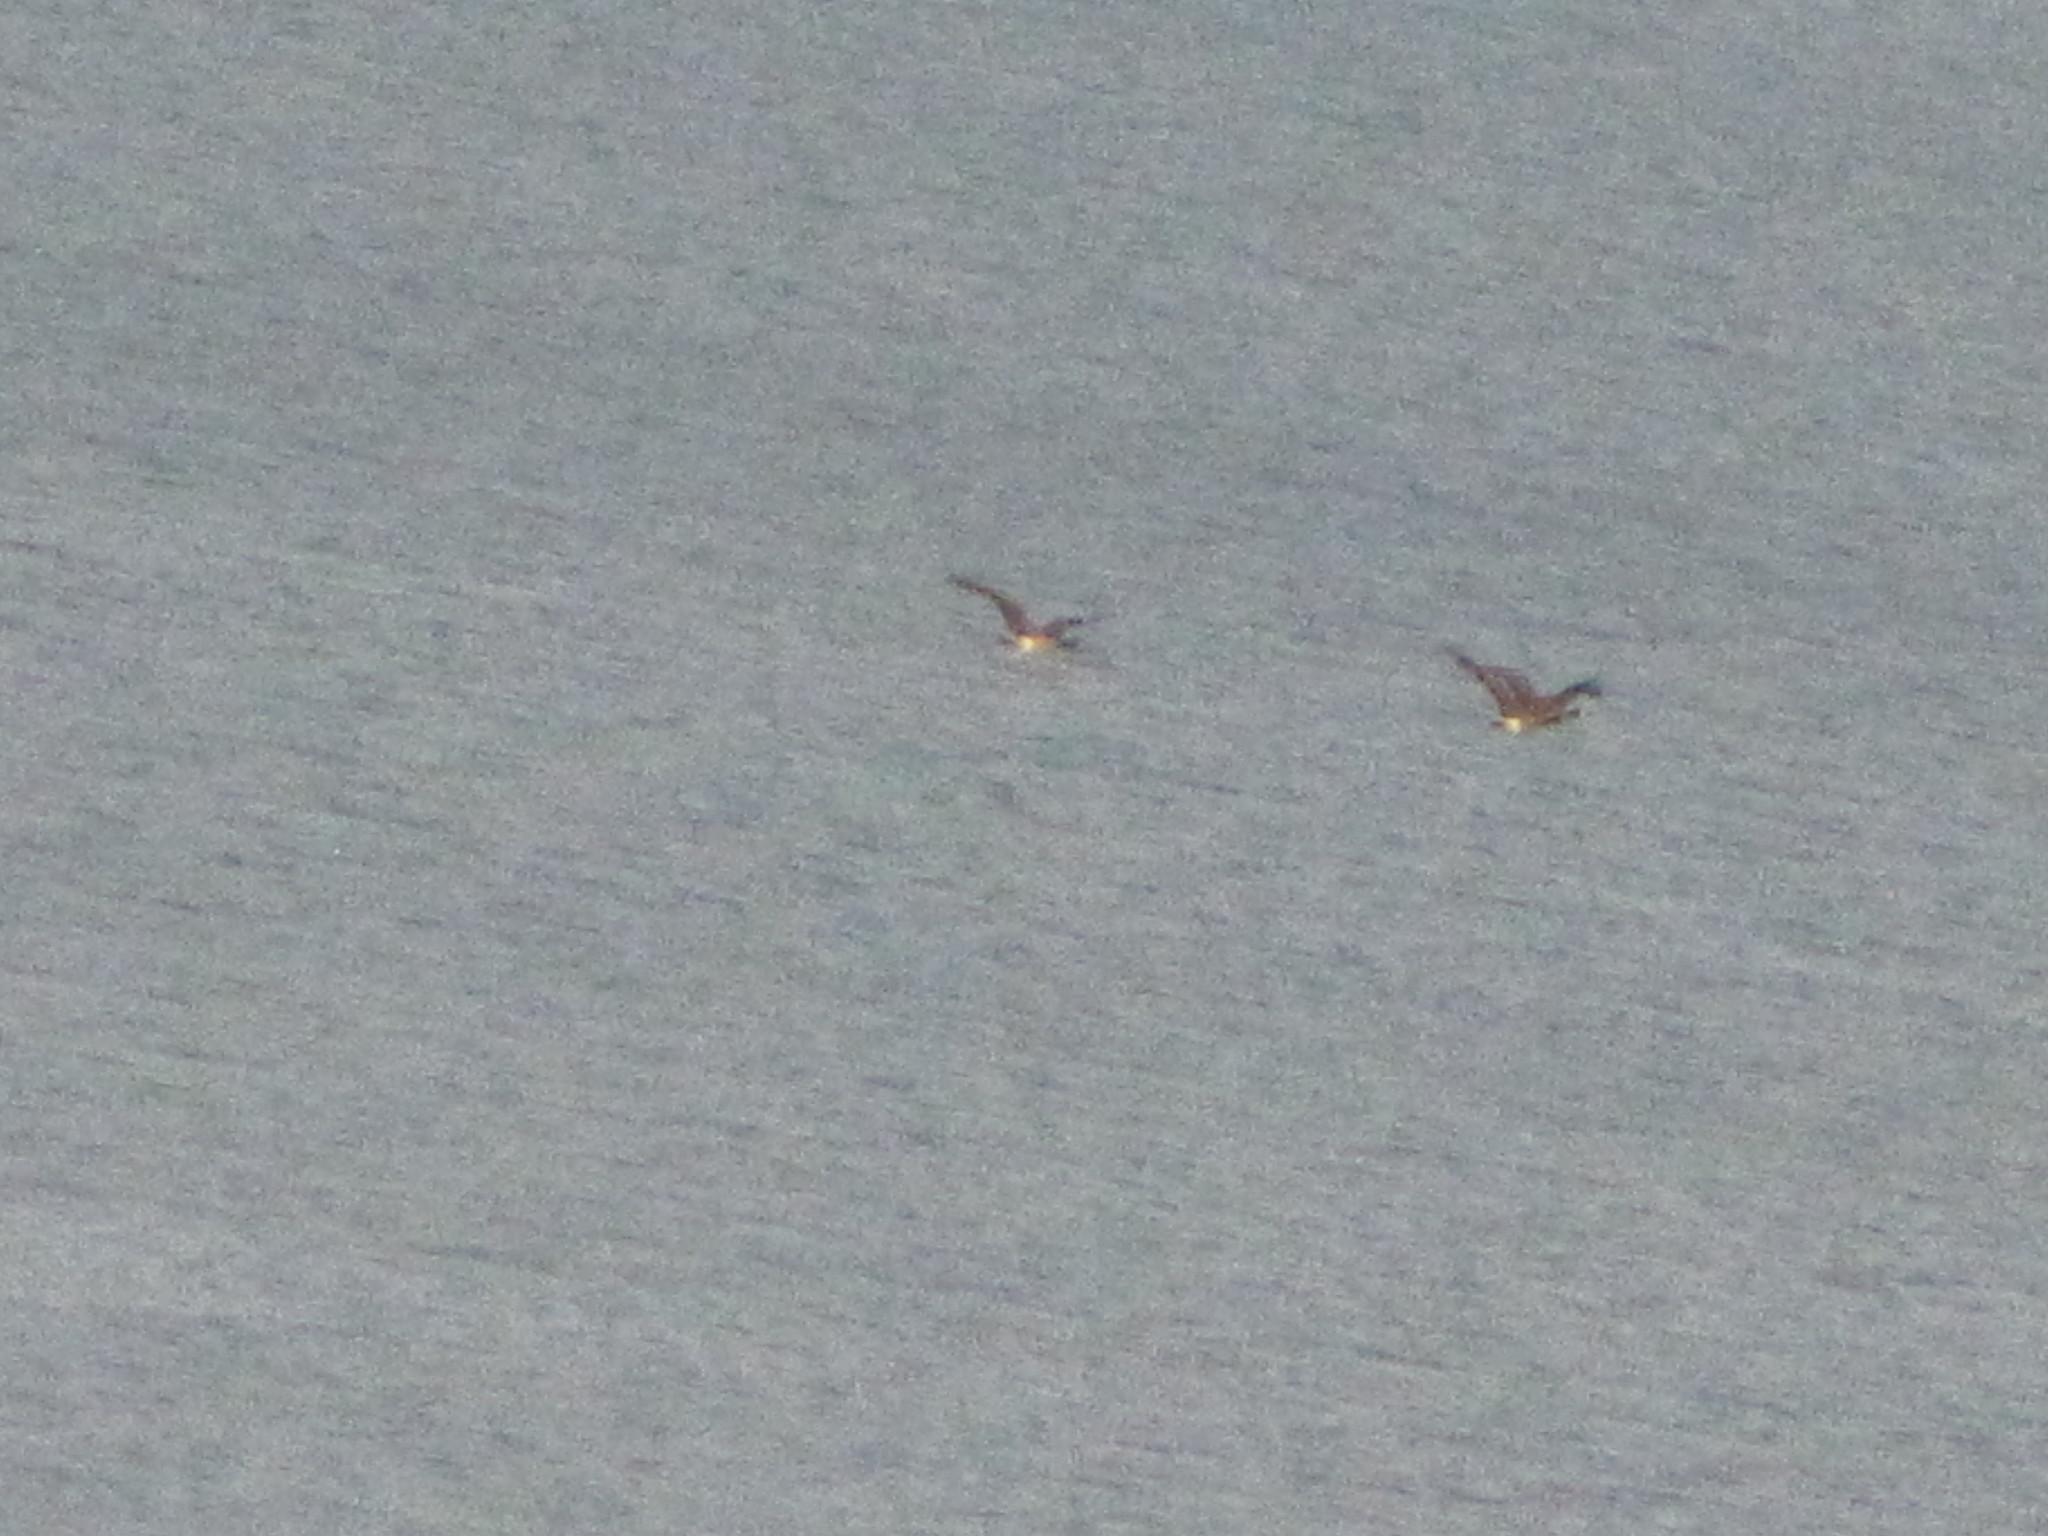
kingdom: Animalia
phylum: Chordata
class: Aves
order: Anseriformes
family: Anatidae
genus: Branta
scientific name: Branta canadensis
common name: Canada goose
